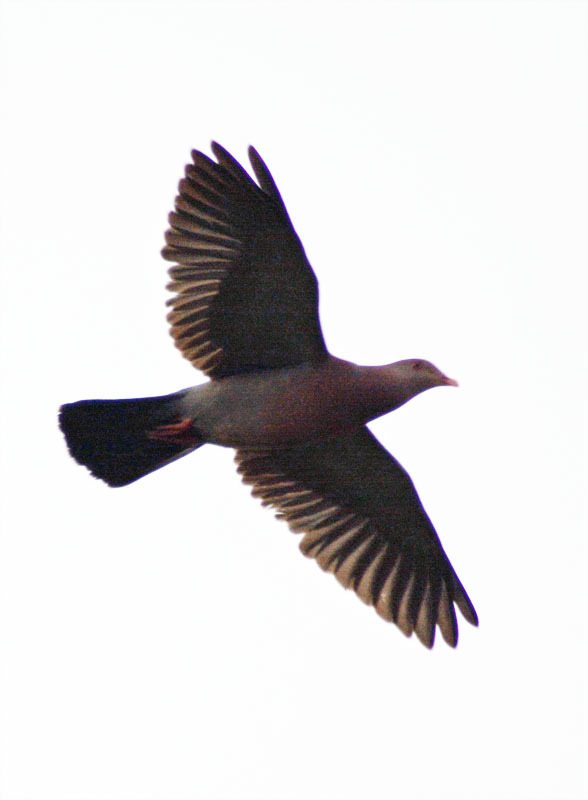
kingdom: Animalia
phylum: Chordata
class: Aves
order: Columbiformes
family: Columbidae
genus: Patagioenas
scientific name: Patagioenas flavirostris
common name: Red-billed pigeon
